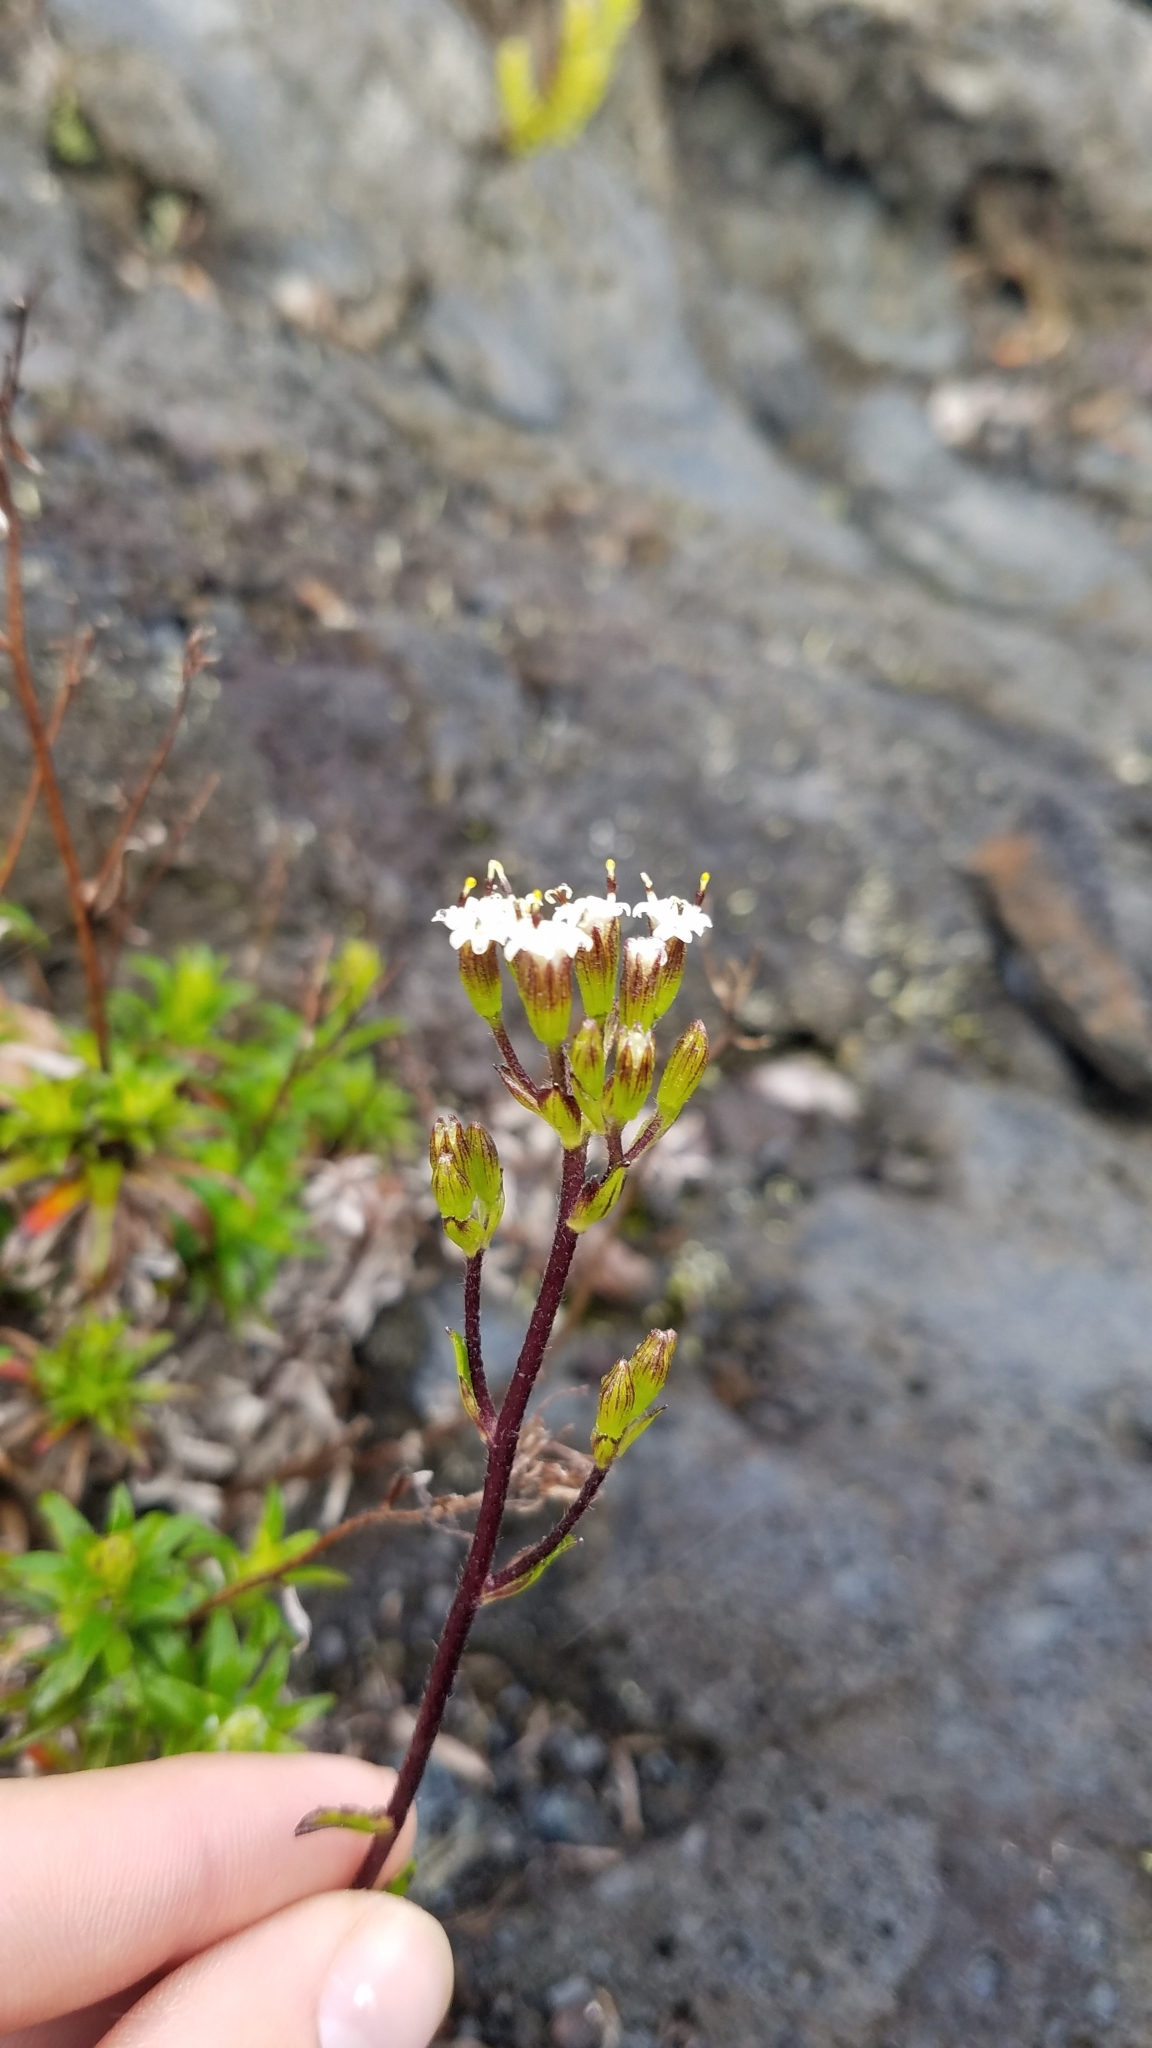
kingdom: Plantae
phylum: Tracheophyta
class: Magnoliopsida
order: Asterales
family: Asteraceae
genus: Dubautia
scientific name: Dubautia scabra
